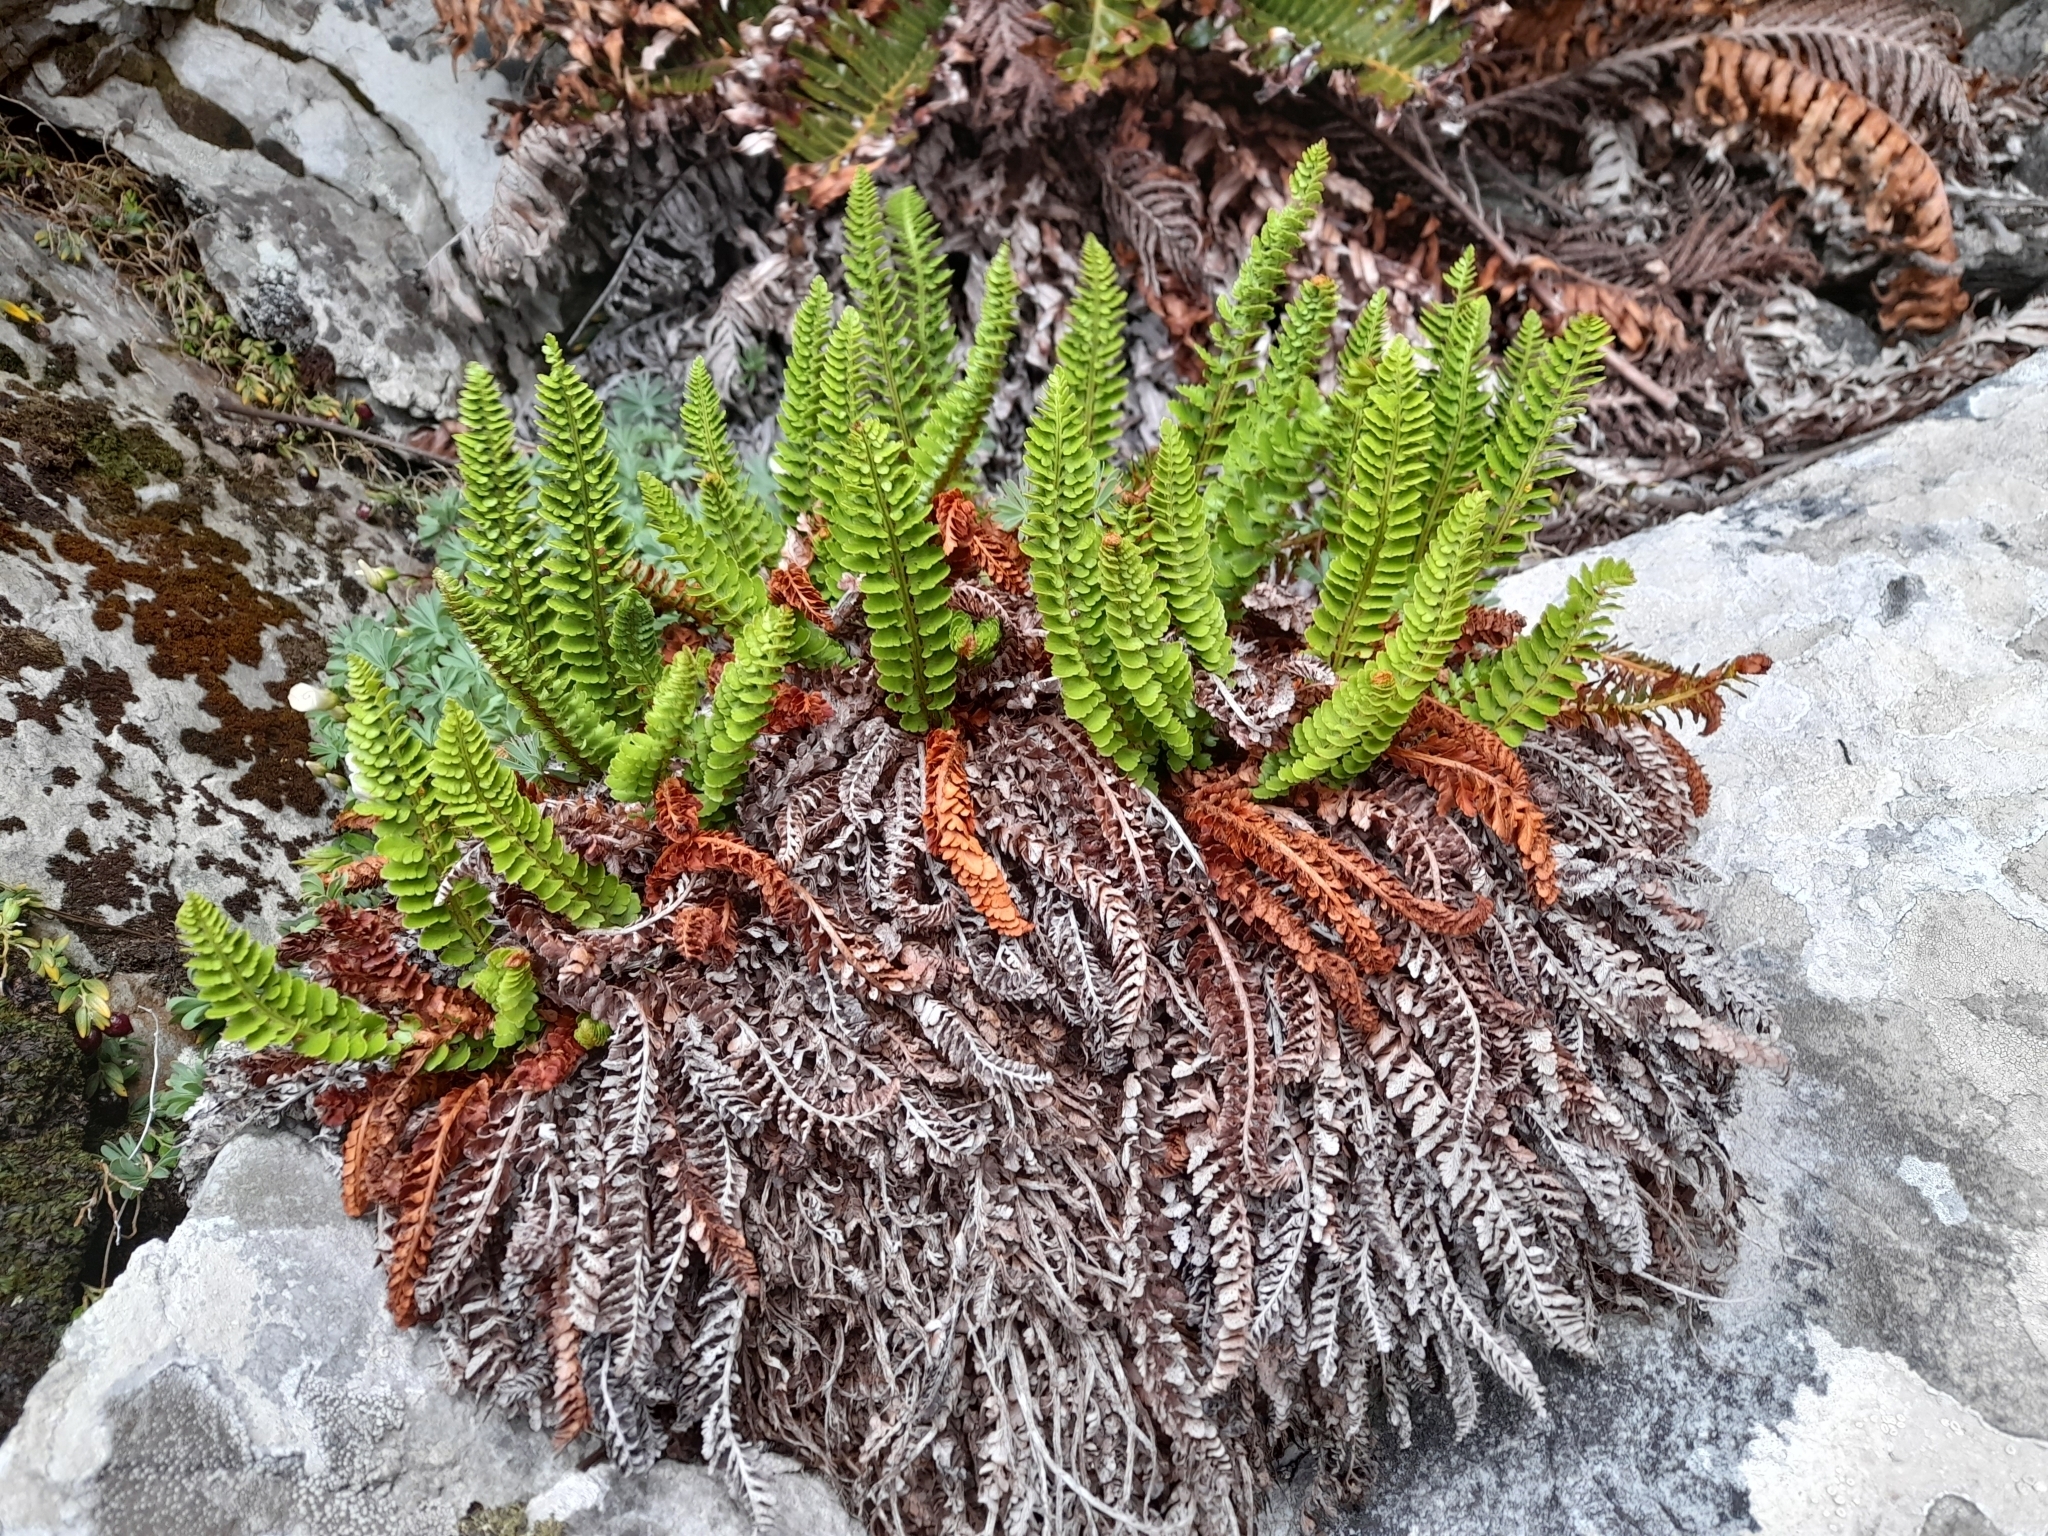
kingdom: Plantae
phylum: Tracheophyta
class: Polypodiopsida
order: Polypodiales
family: Dryopteridaceae
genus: Polystichum
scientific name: Polystichum mohrioides
